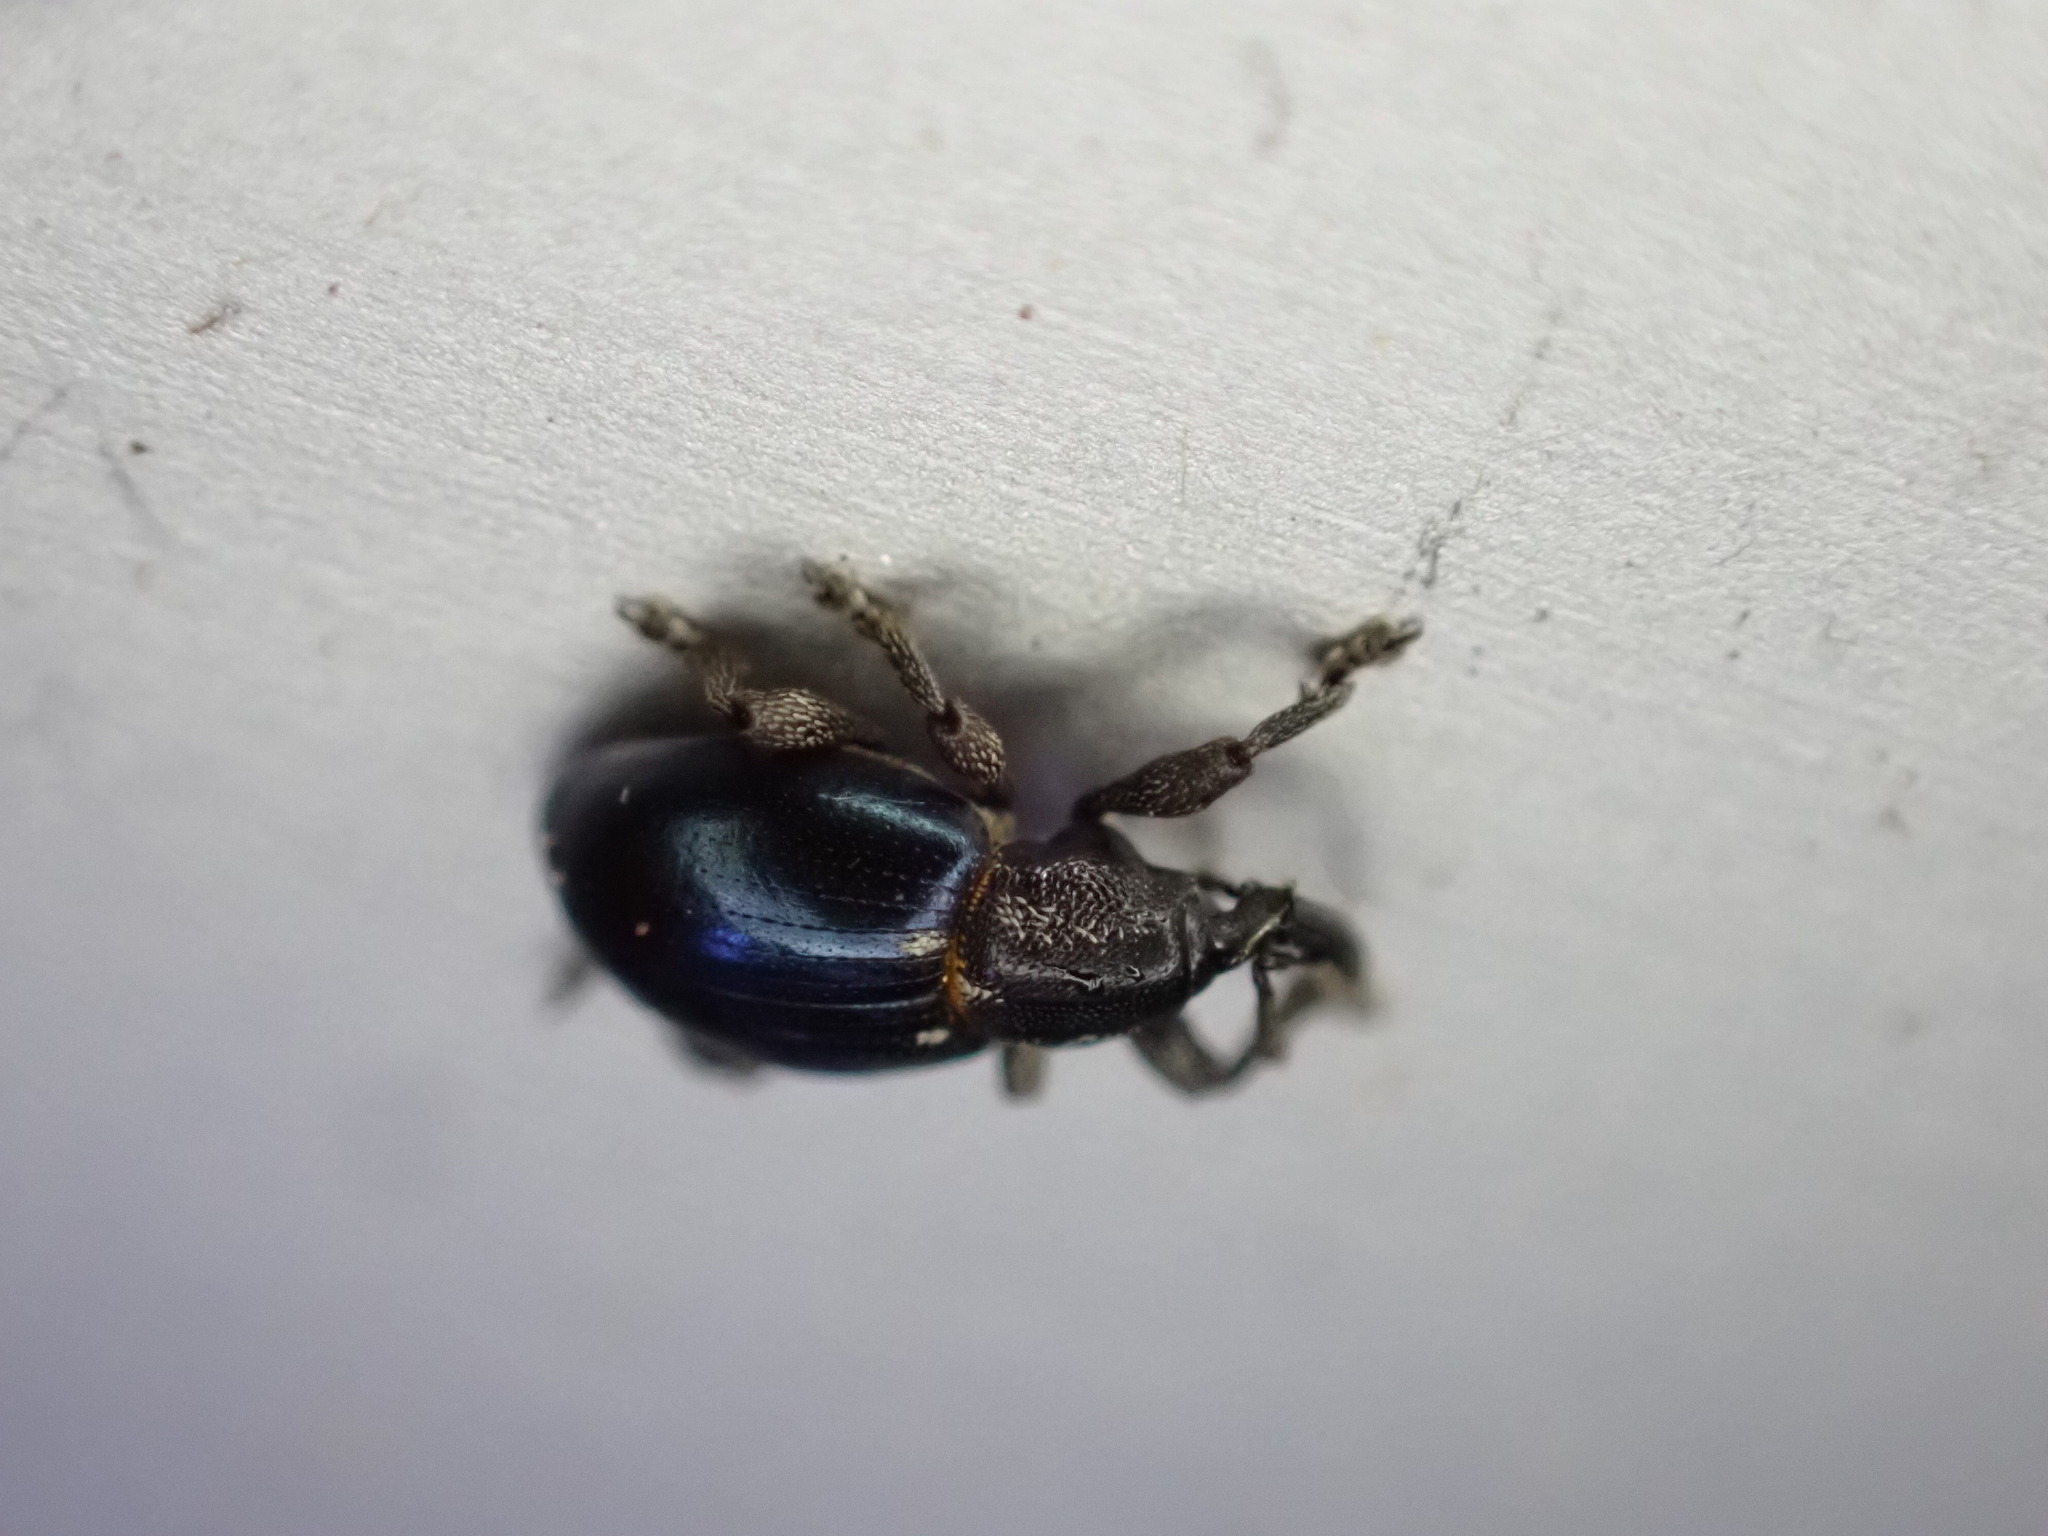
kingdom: Animalia
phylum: Arthropoda
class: Insecta
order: Coleoptera
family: Curculionidae
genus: Smicronyx
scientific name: Smicronyx cyaneus
